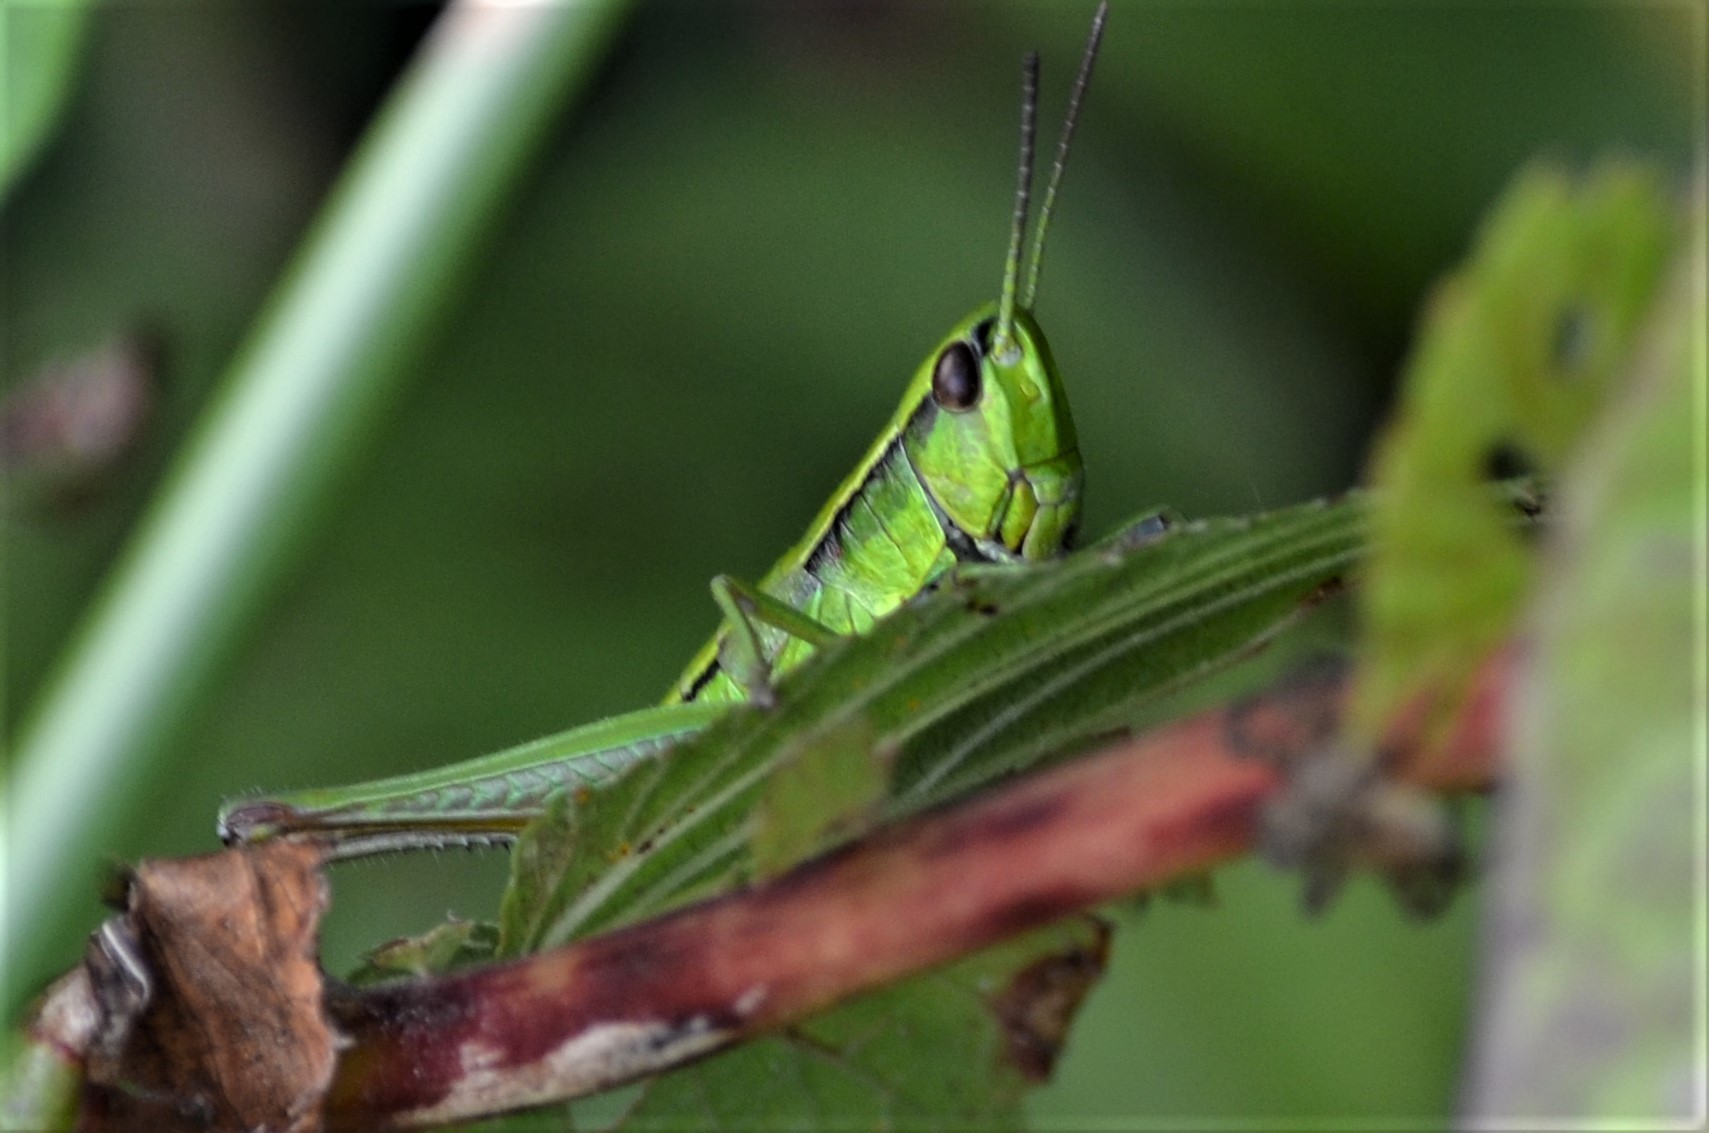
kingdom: Animalia
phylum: Arthropoda
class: Insecta
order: Orthoptera
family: Acrididae
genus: Euthystira
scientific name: Euthystira brachyptera
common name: Small gold grasshopper
